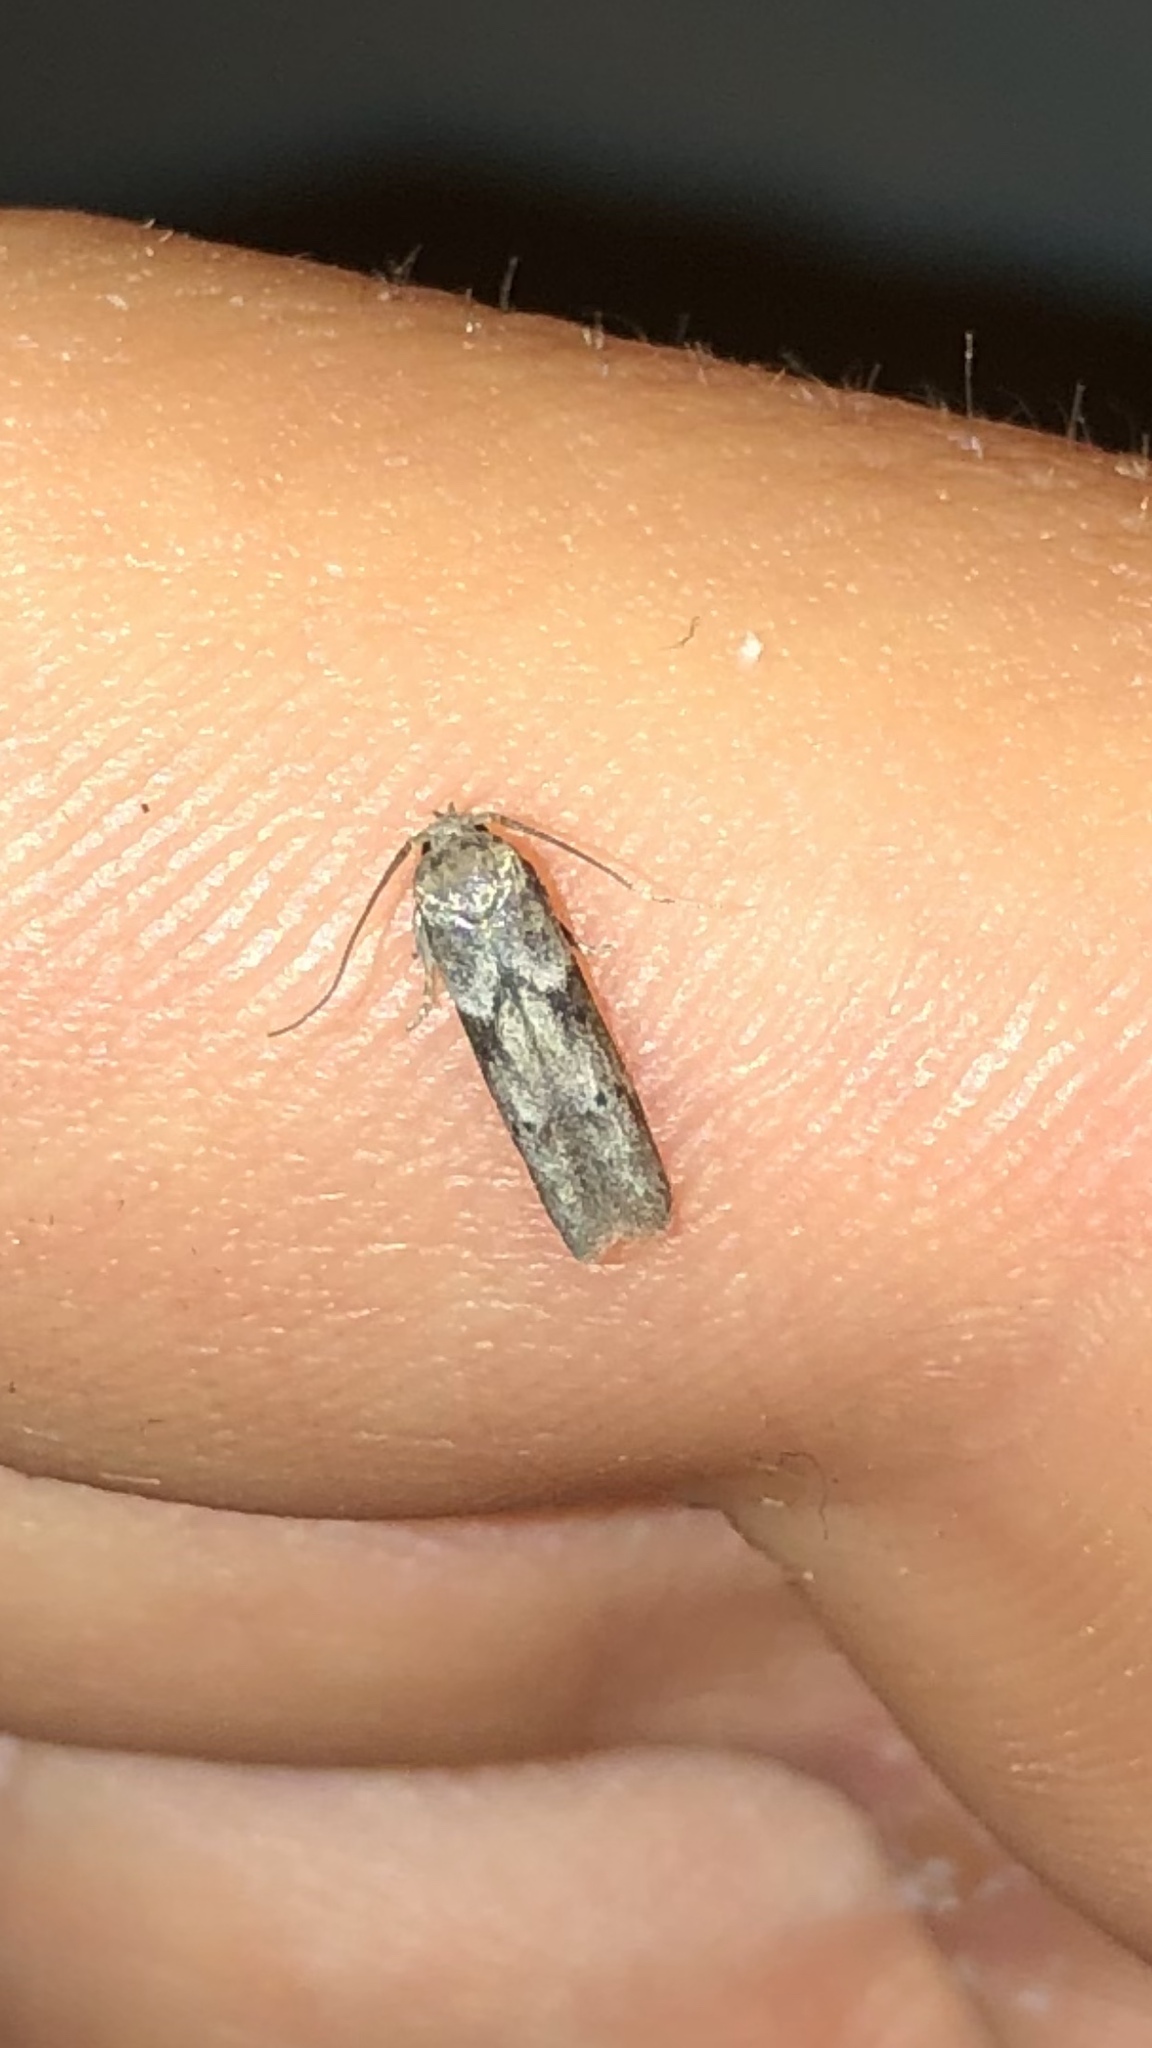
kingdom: Animalia
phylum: Arthropoda
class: Insecta
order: Lepidoptera
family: Blastobasidae
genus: Blastobasis
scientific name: Blastobasis glandulella
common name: Acorn moth
